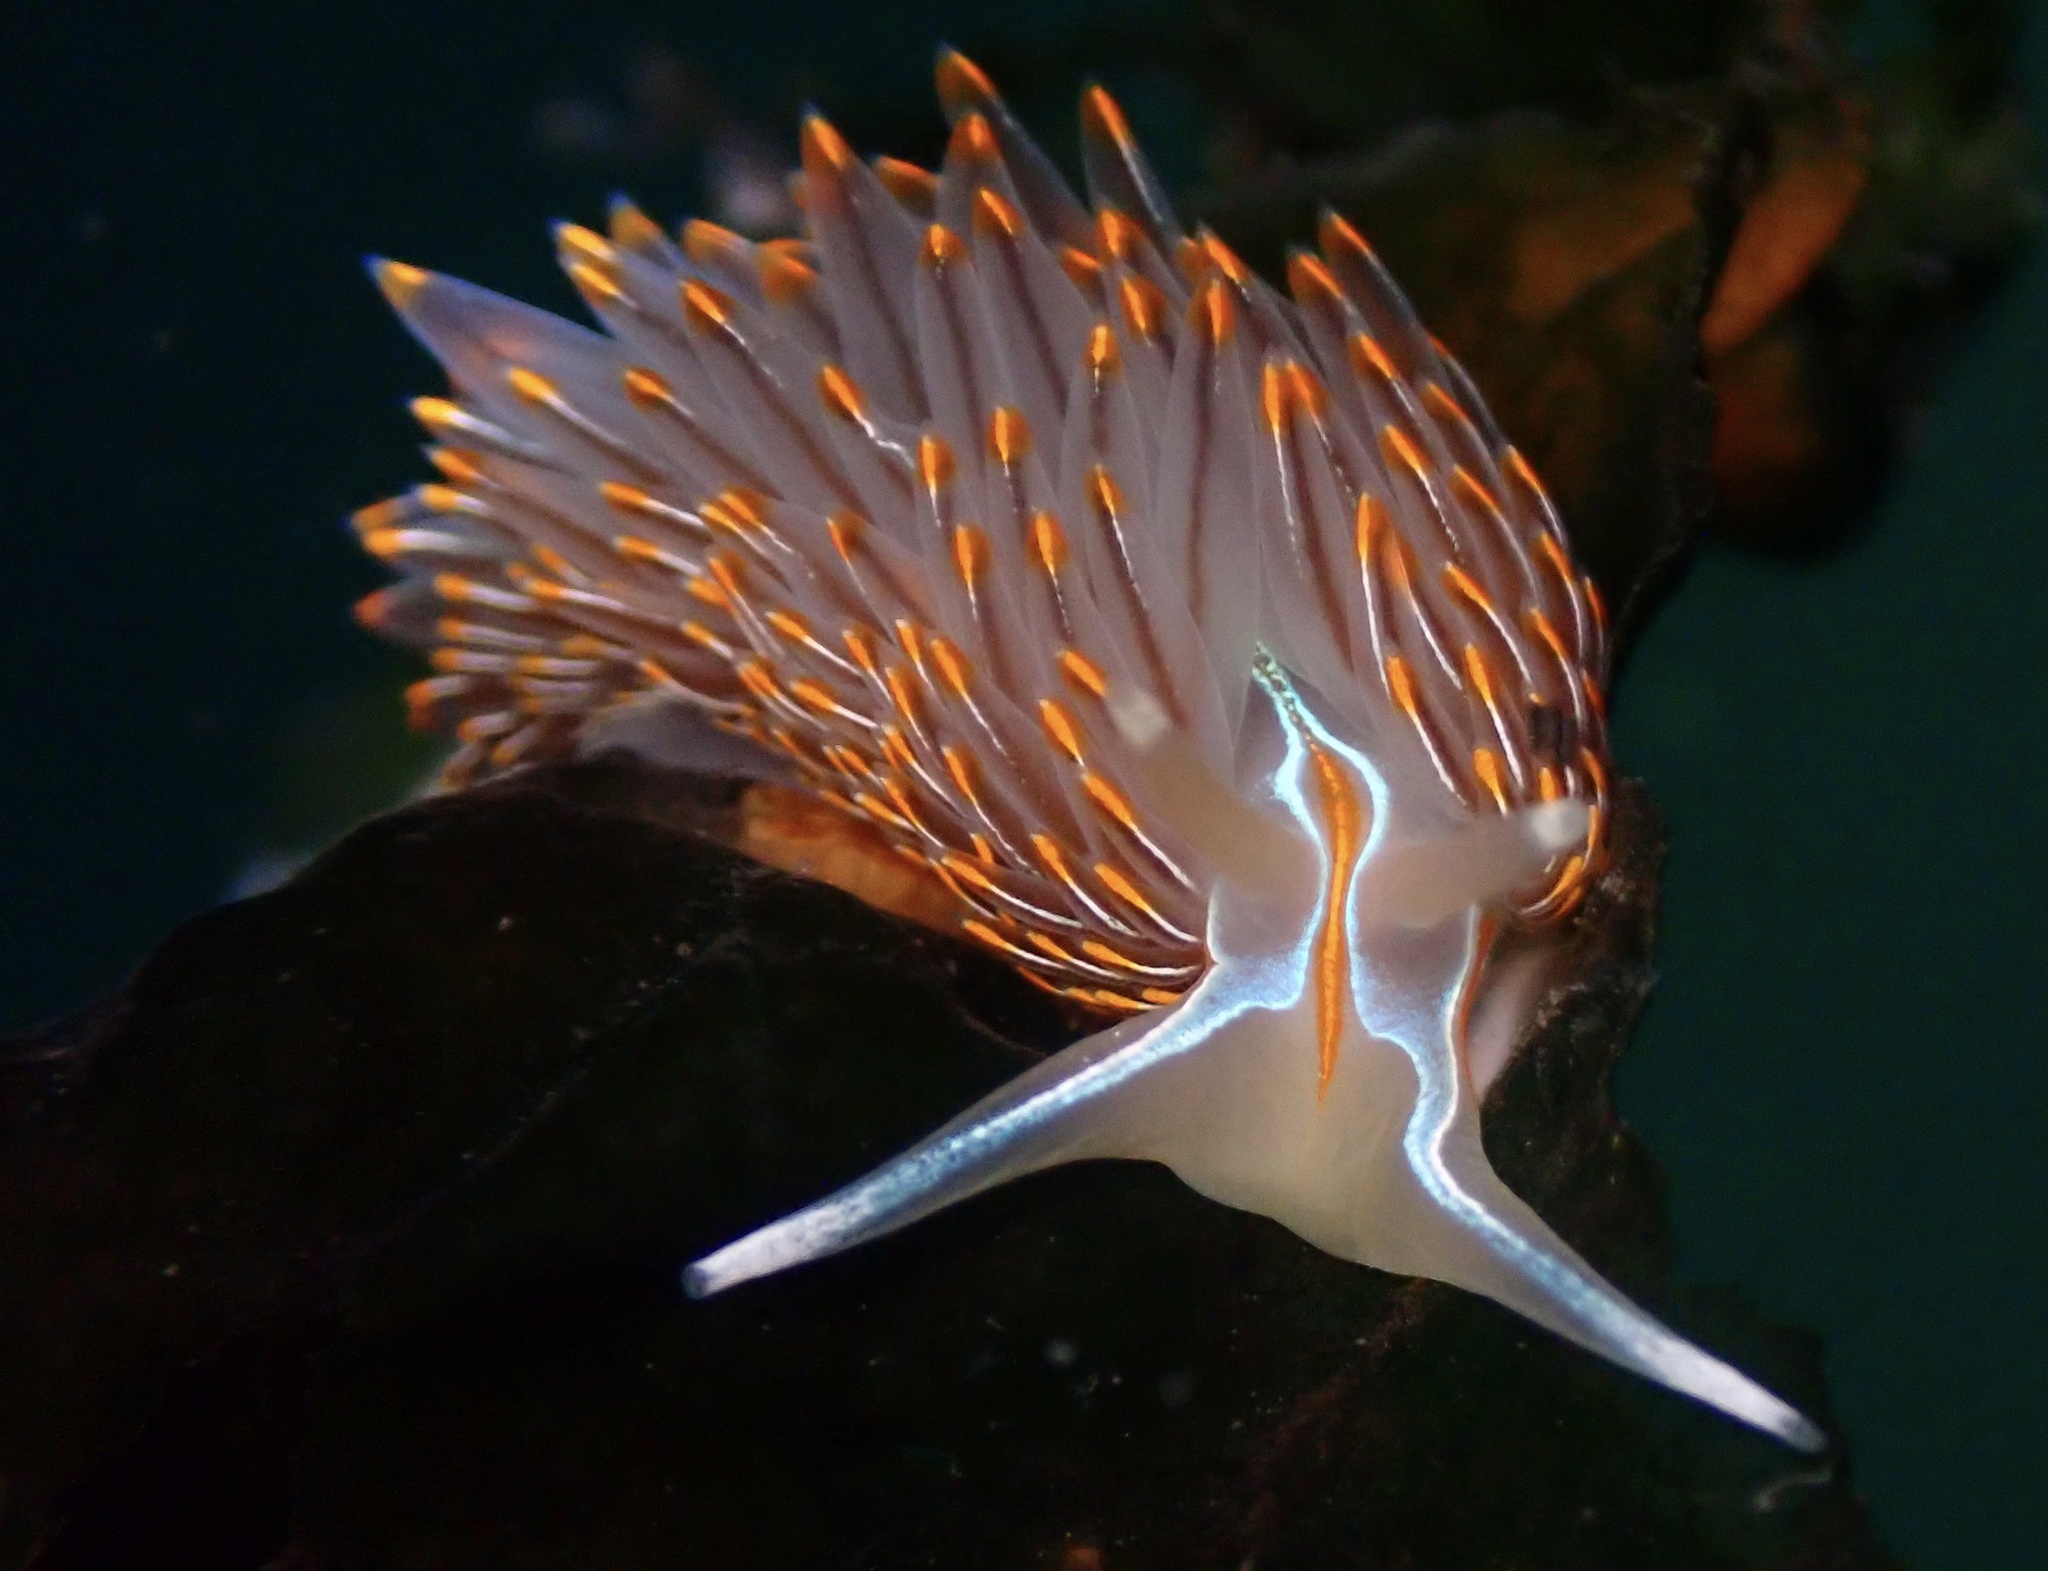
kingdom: Animalia
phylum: Mollusca
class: Gastropoda
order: Nudibranchia
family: Myrrhinidae
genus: Hermissenda
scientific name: Hermissenda crassicornis
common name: Hermissenda
